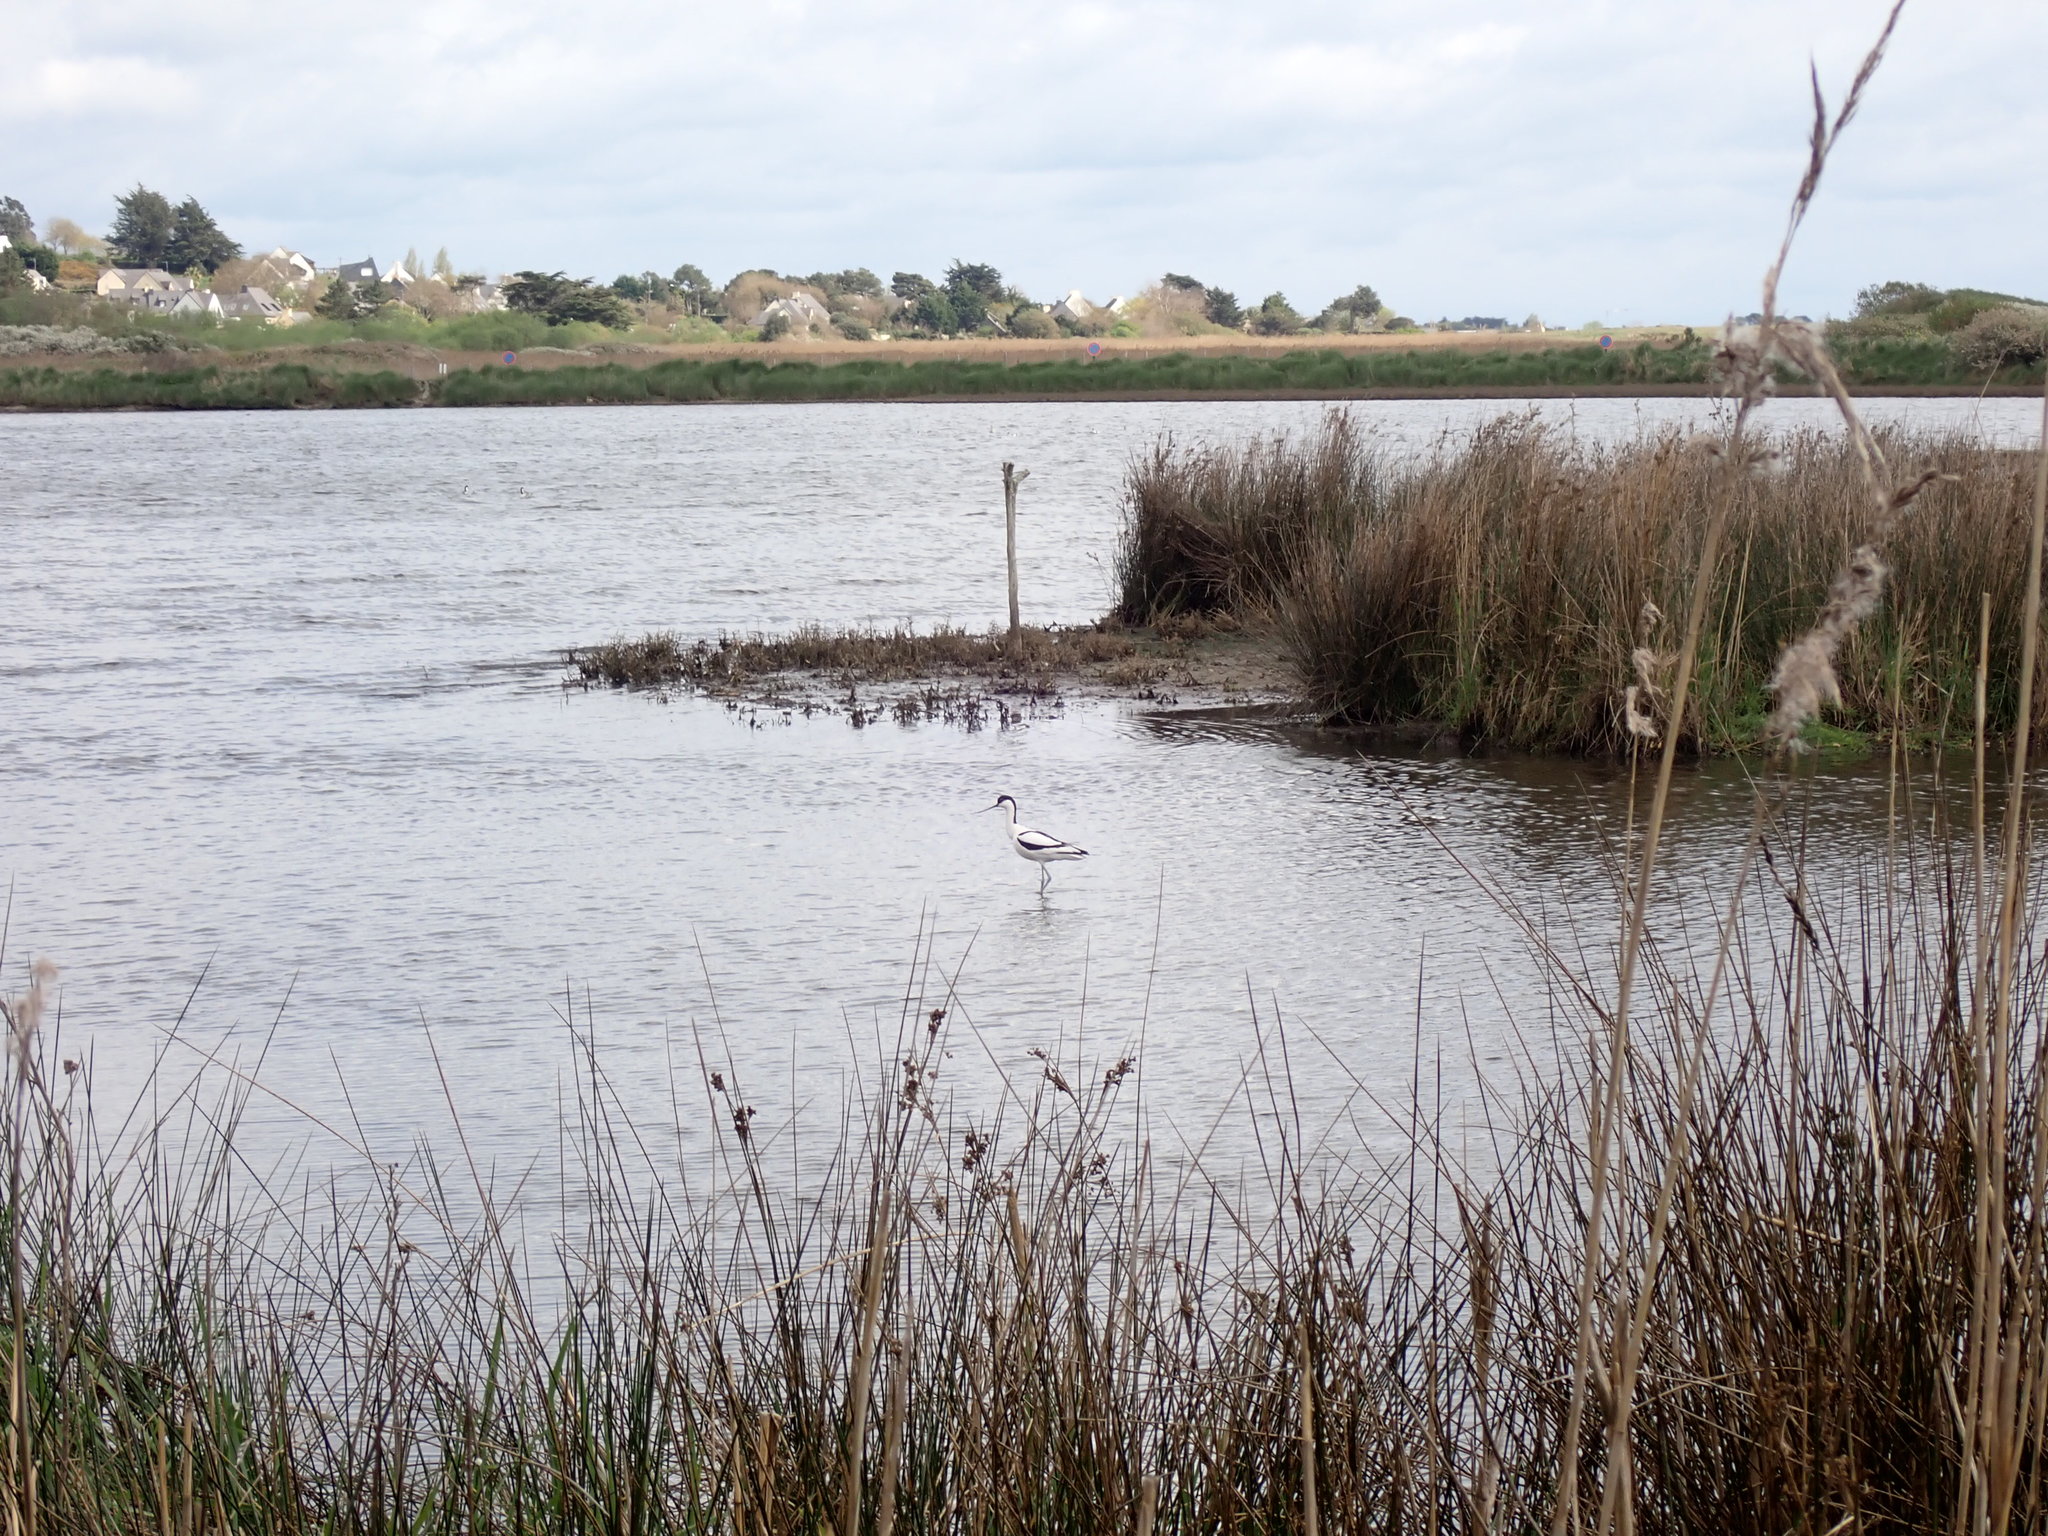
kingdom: Animalia
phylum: Chordata
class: Aves
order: Charadriiformes
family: Recurvirostridae
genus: Recurvirostra
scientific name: Recurvirostra avosetta
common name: Pied avocet
